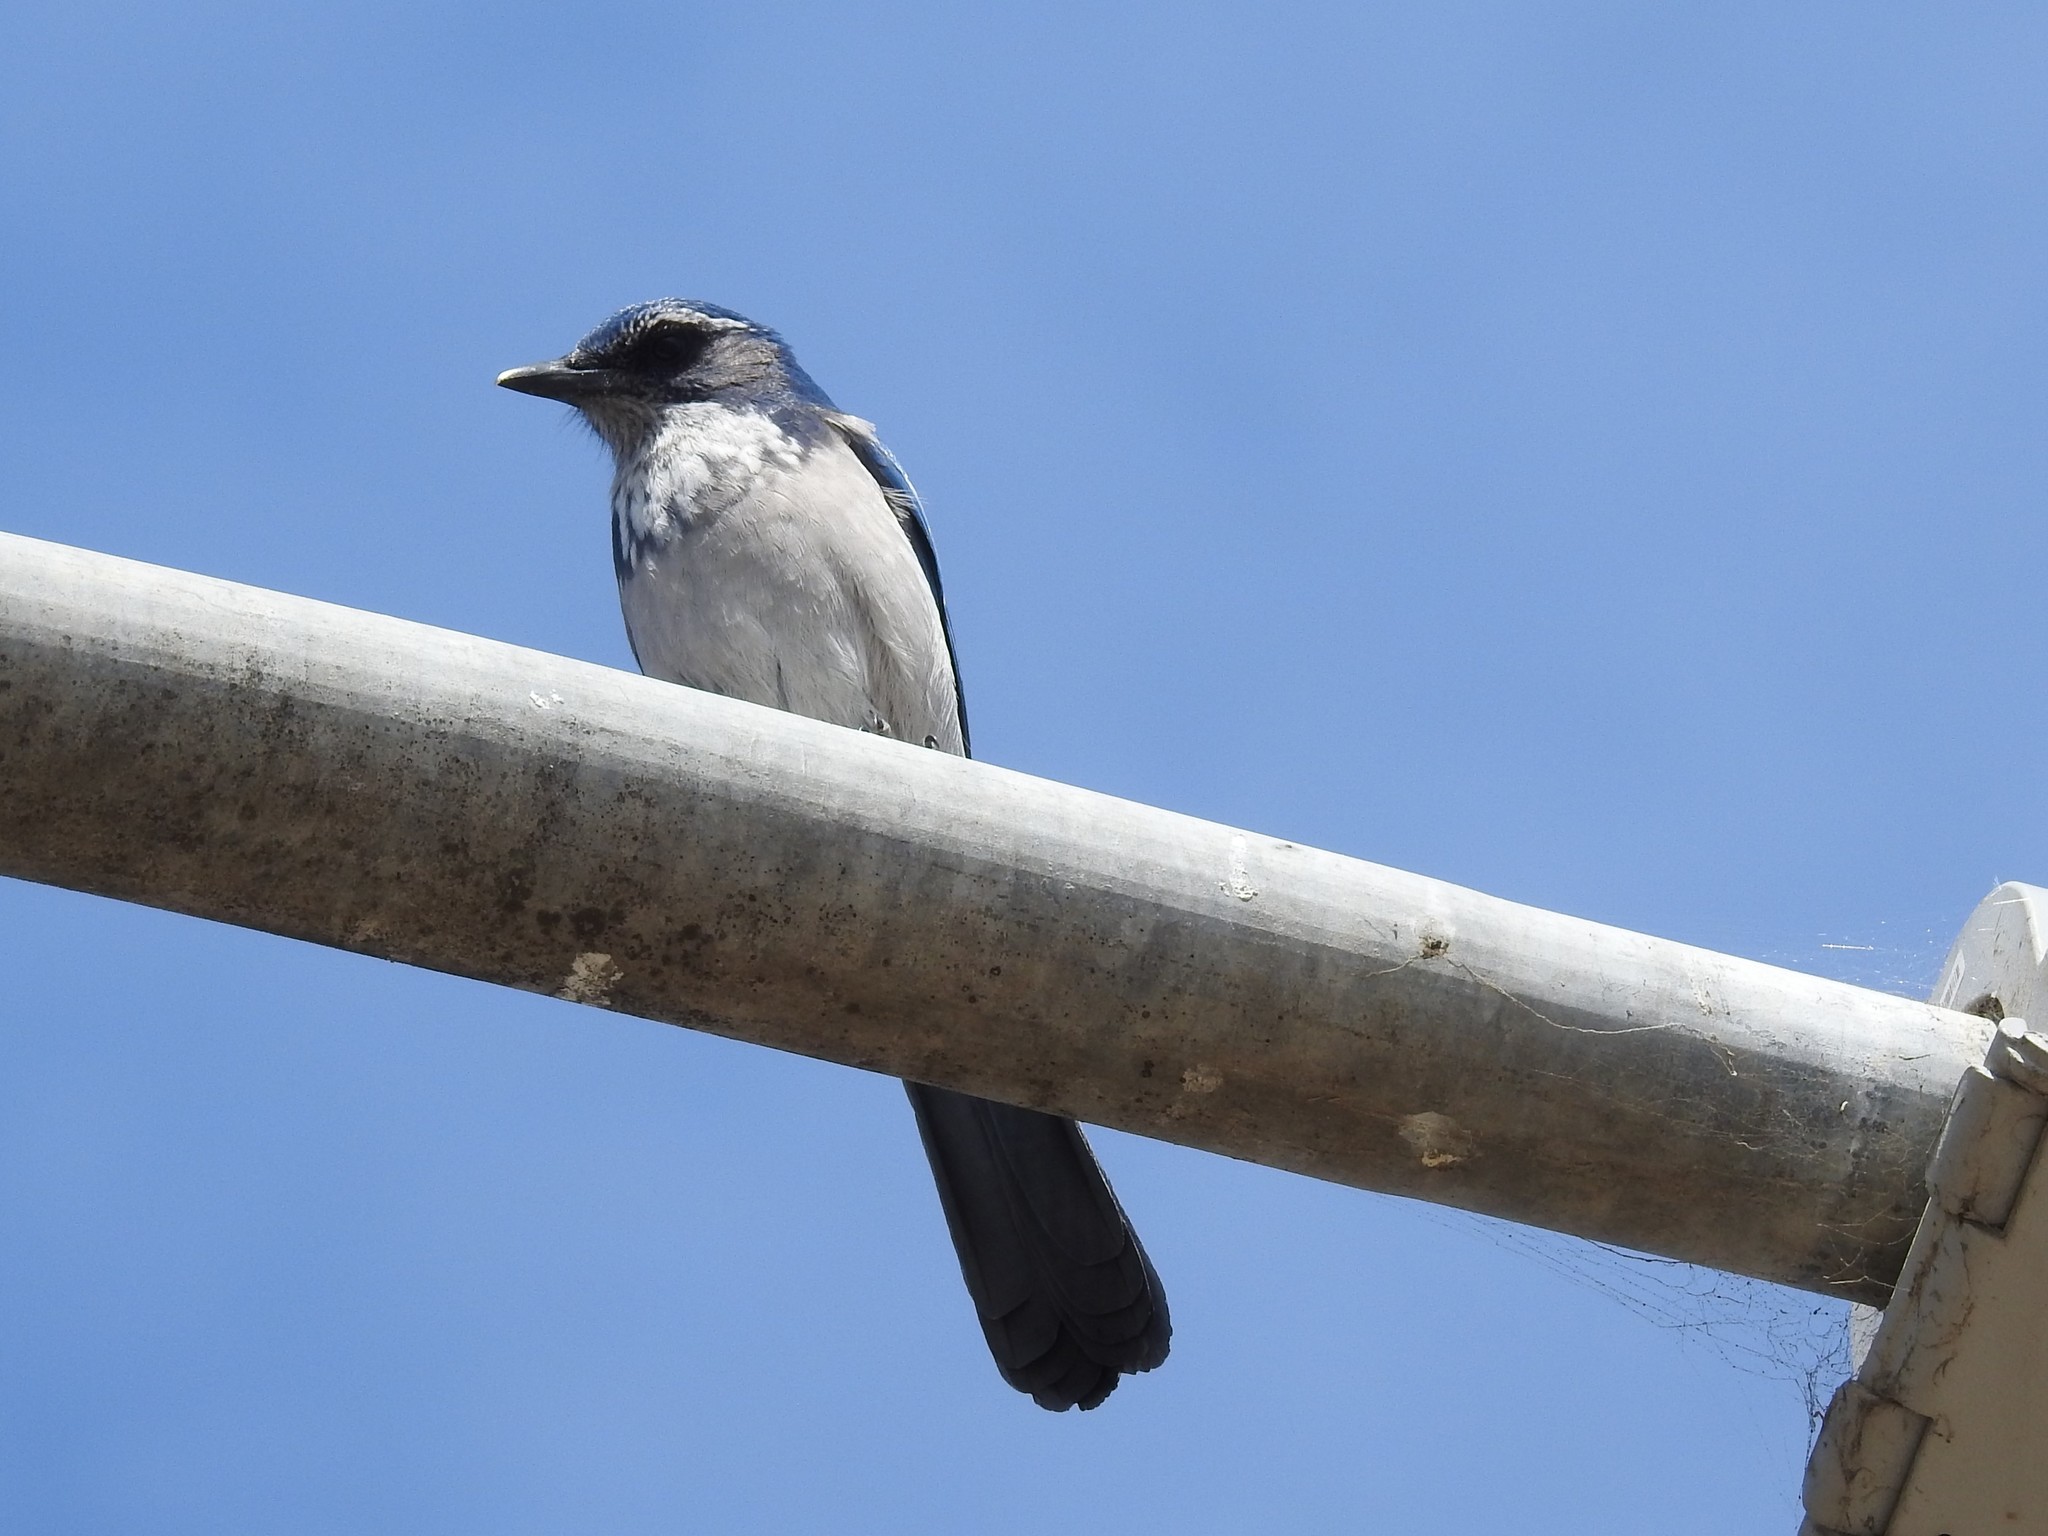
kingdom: Animalia
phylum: Chordata
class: Aves
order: Passeriformes
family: Corvidae
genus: Aphelocoma
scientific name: Aphelocoma californica
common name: California scrub-jay
